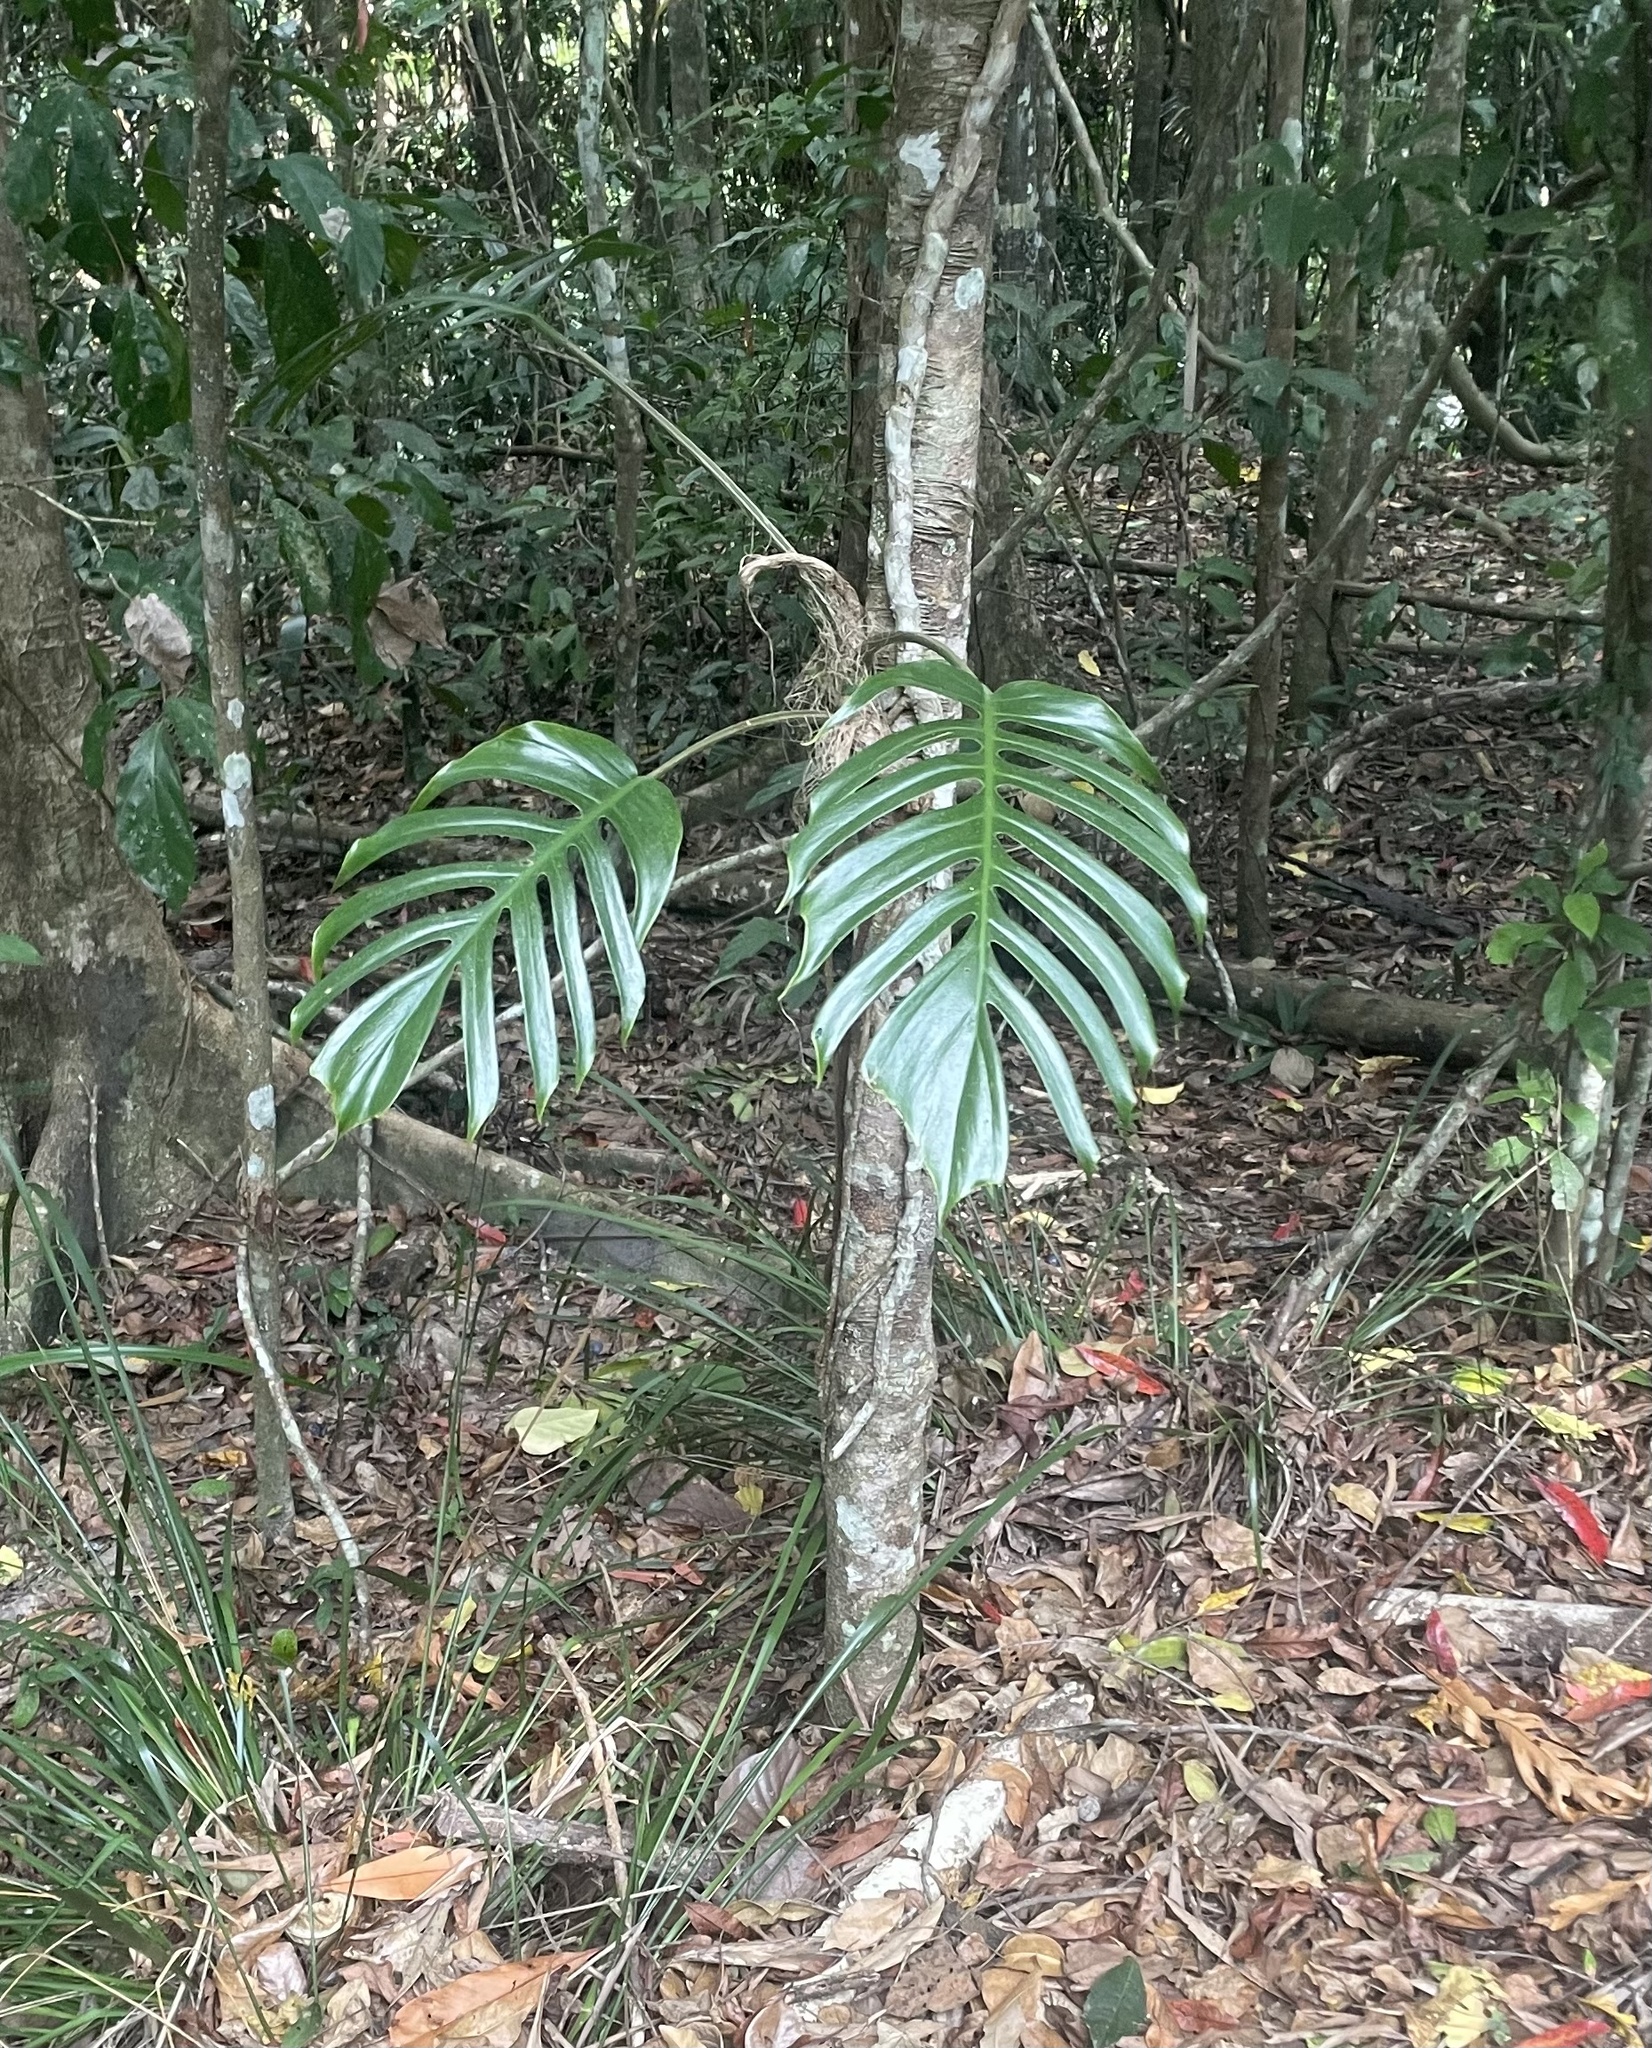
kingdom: Plantae
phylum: Tracheophyta
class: Liliopsida
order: Alismatales
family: Araceae
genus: Epipremnum
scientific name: Epipremnum pinnatum
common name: Centipede tongavine
